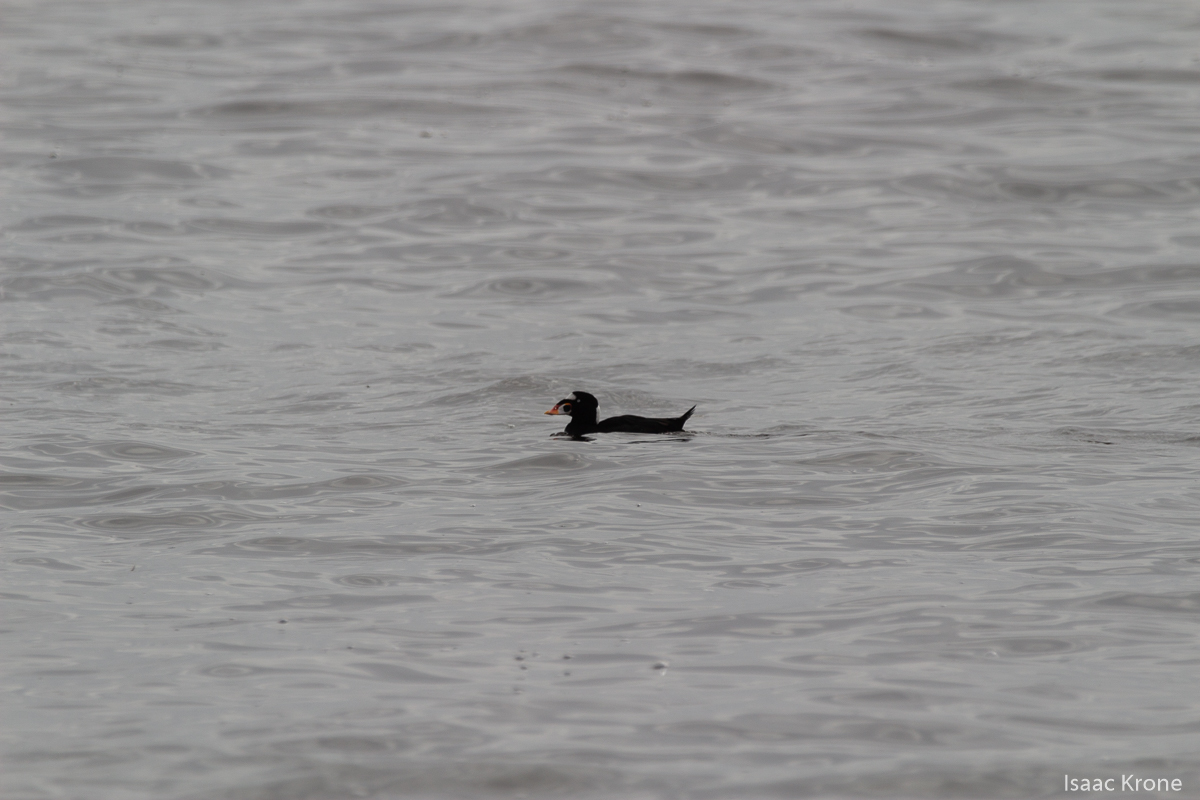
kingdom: Animalia
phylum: Chordata
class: Aves
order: Anseriformes
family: Anatidae
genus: Melanitta
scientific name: Melanitta perspicillata
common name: Surf scoter
